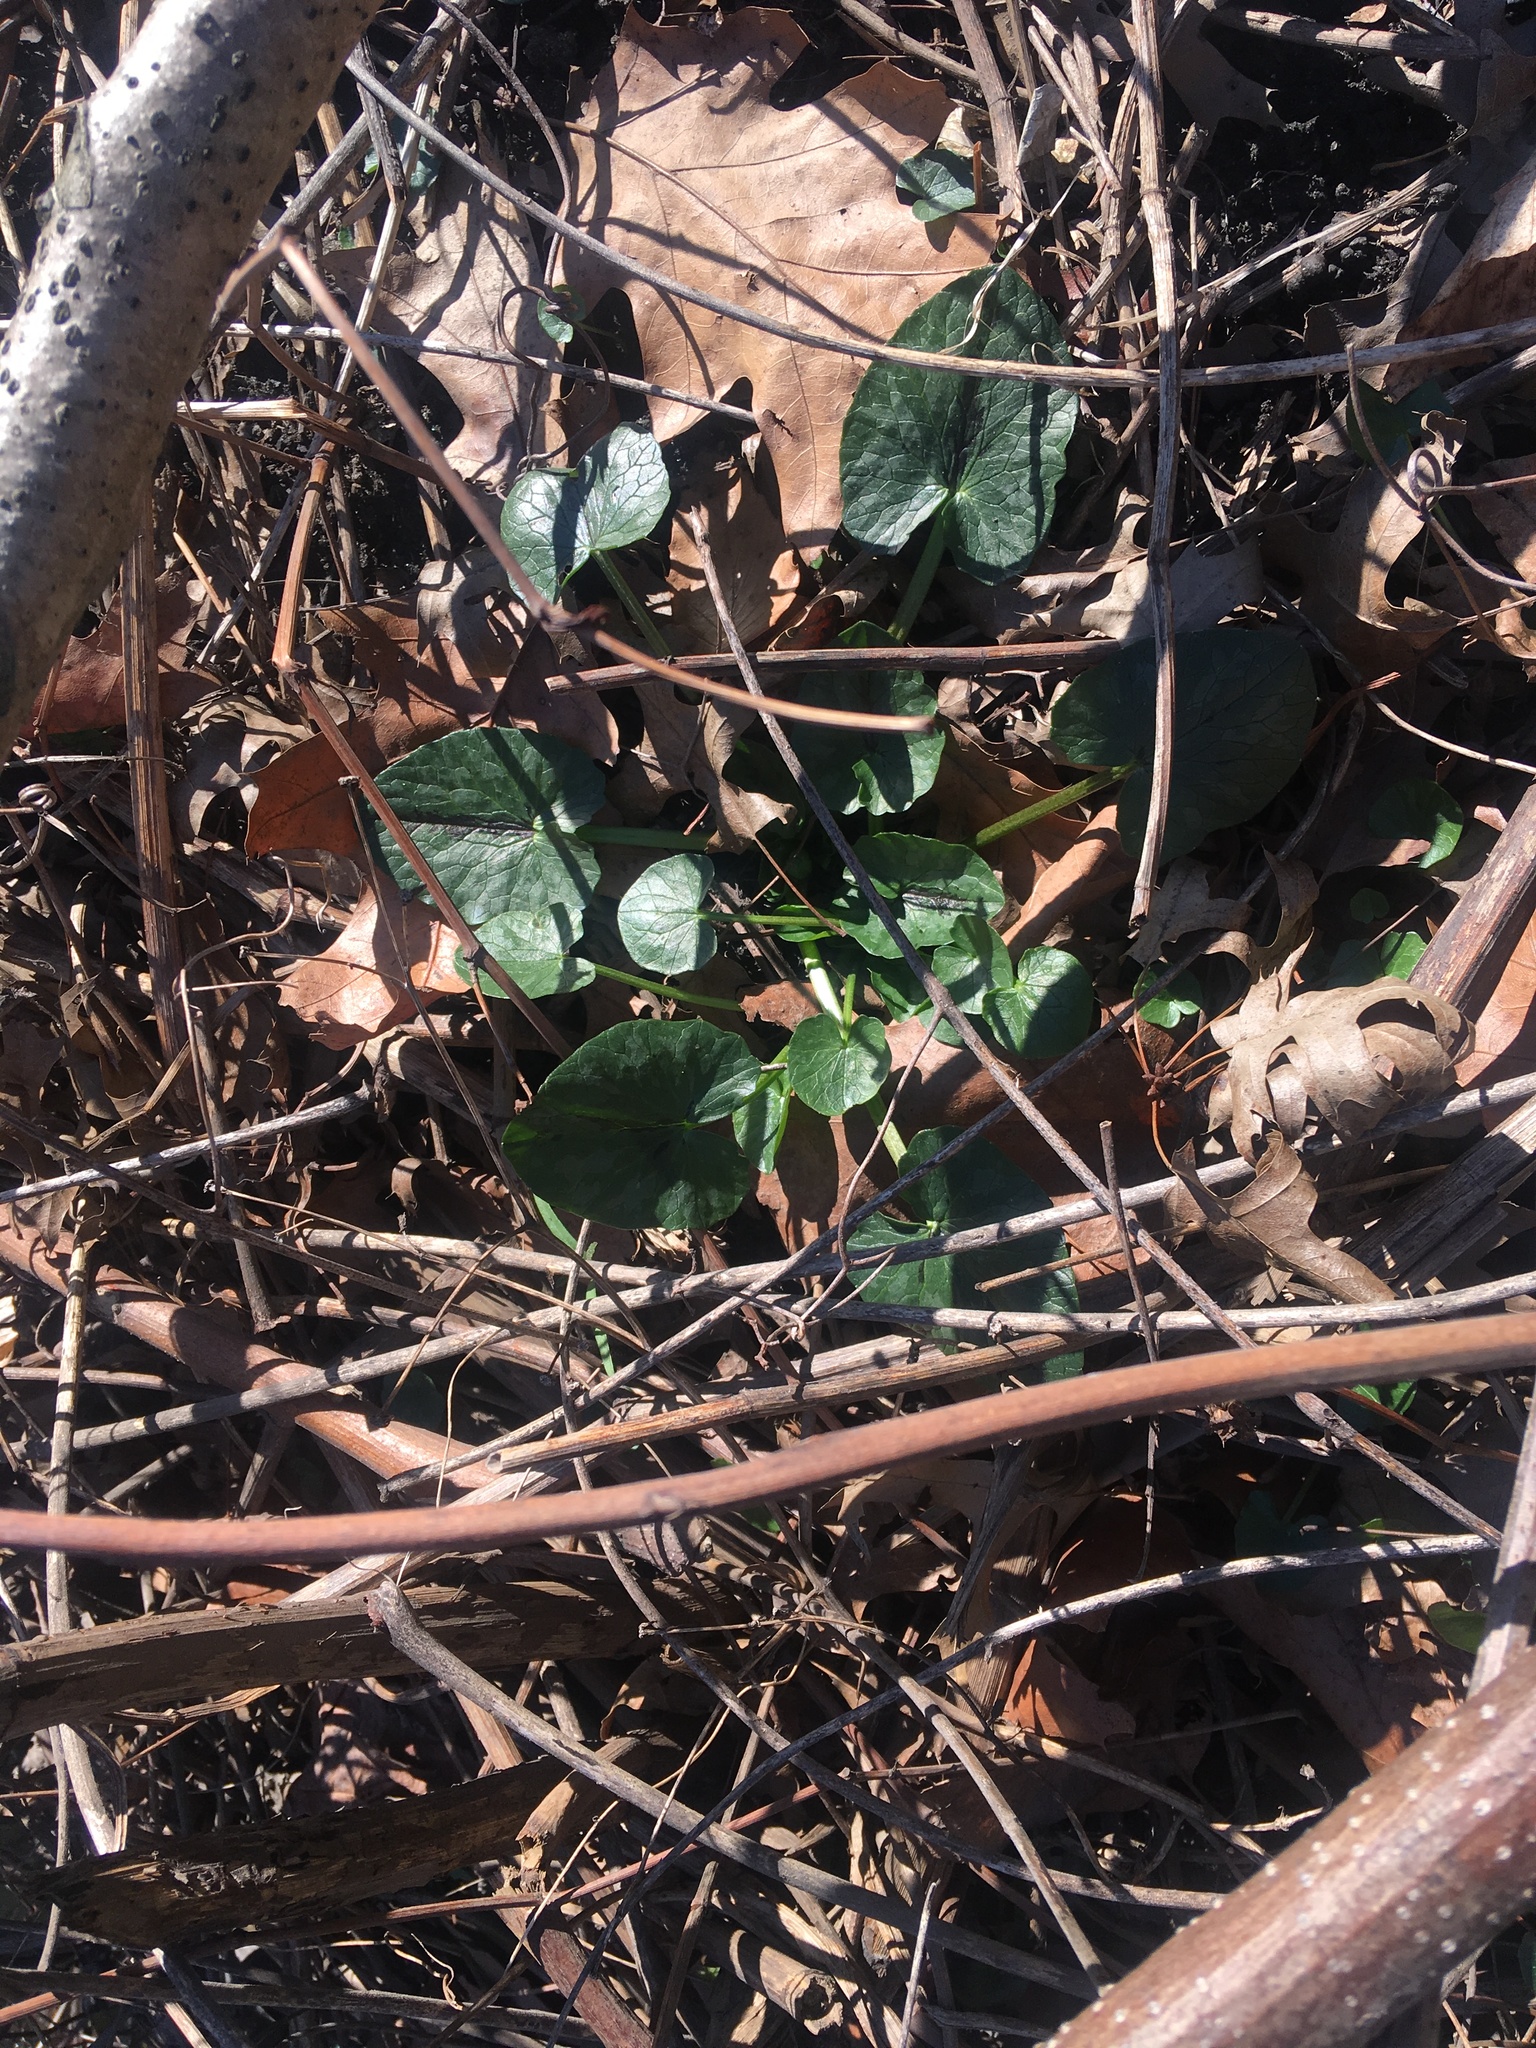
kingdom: Plantae
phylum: Tracheophyta
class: Magnoliopsida
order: Ranunculales
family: Ranunculaceae
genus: Ficaria
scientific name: Ficaria verna
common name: Lesser celandine
